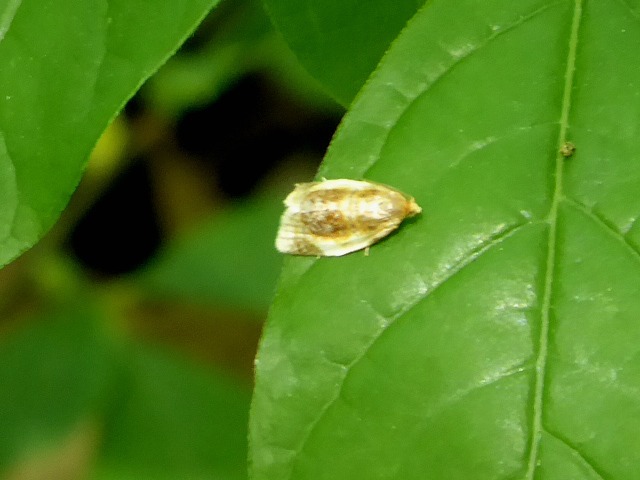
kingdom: Animalia
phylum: Arthropoda
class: Insecta
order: Lepidoptera
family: Tortricidae
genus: Clepsis
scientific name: Clepsis melaleucanus
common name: American apple tortrix
